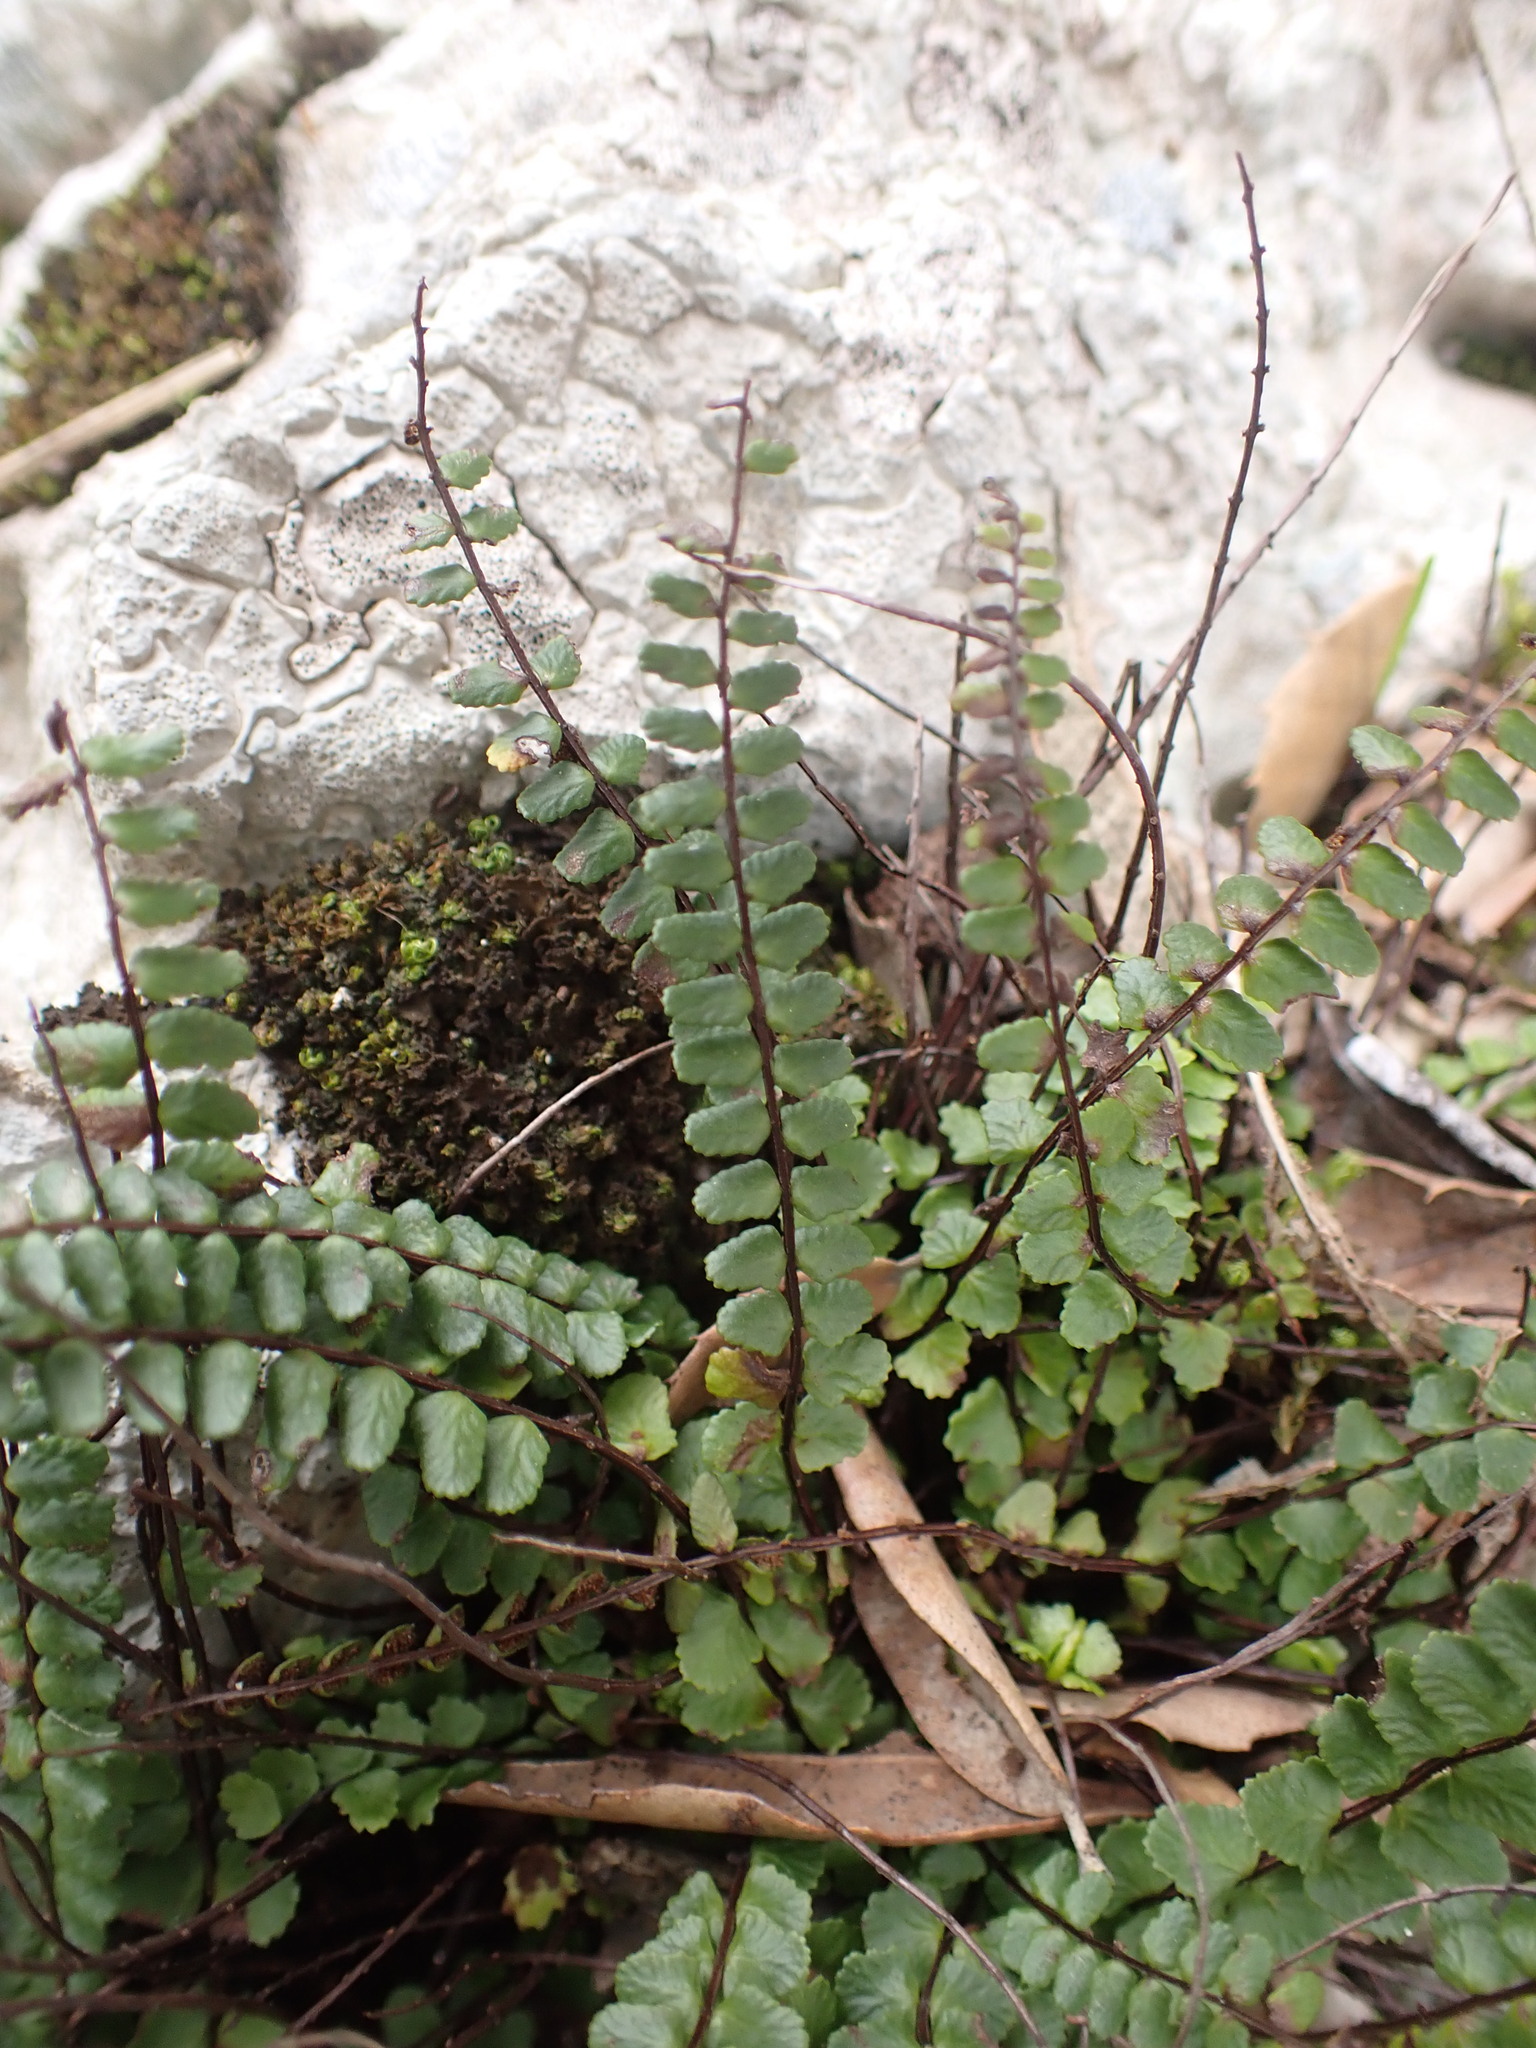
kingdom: Plantae
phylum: Tracheophyta
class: Polypodiopsida
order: Polypodiales
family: Aspleniaceae
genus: Asplenium
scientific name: Asplenium trichomanes
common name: Maidenhair spleenwort
